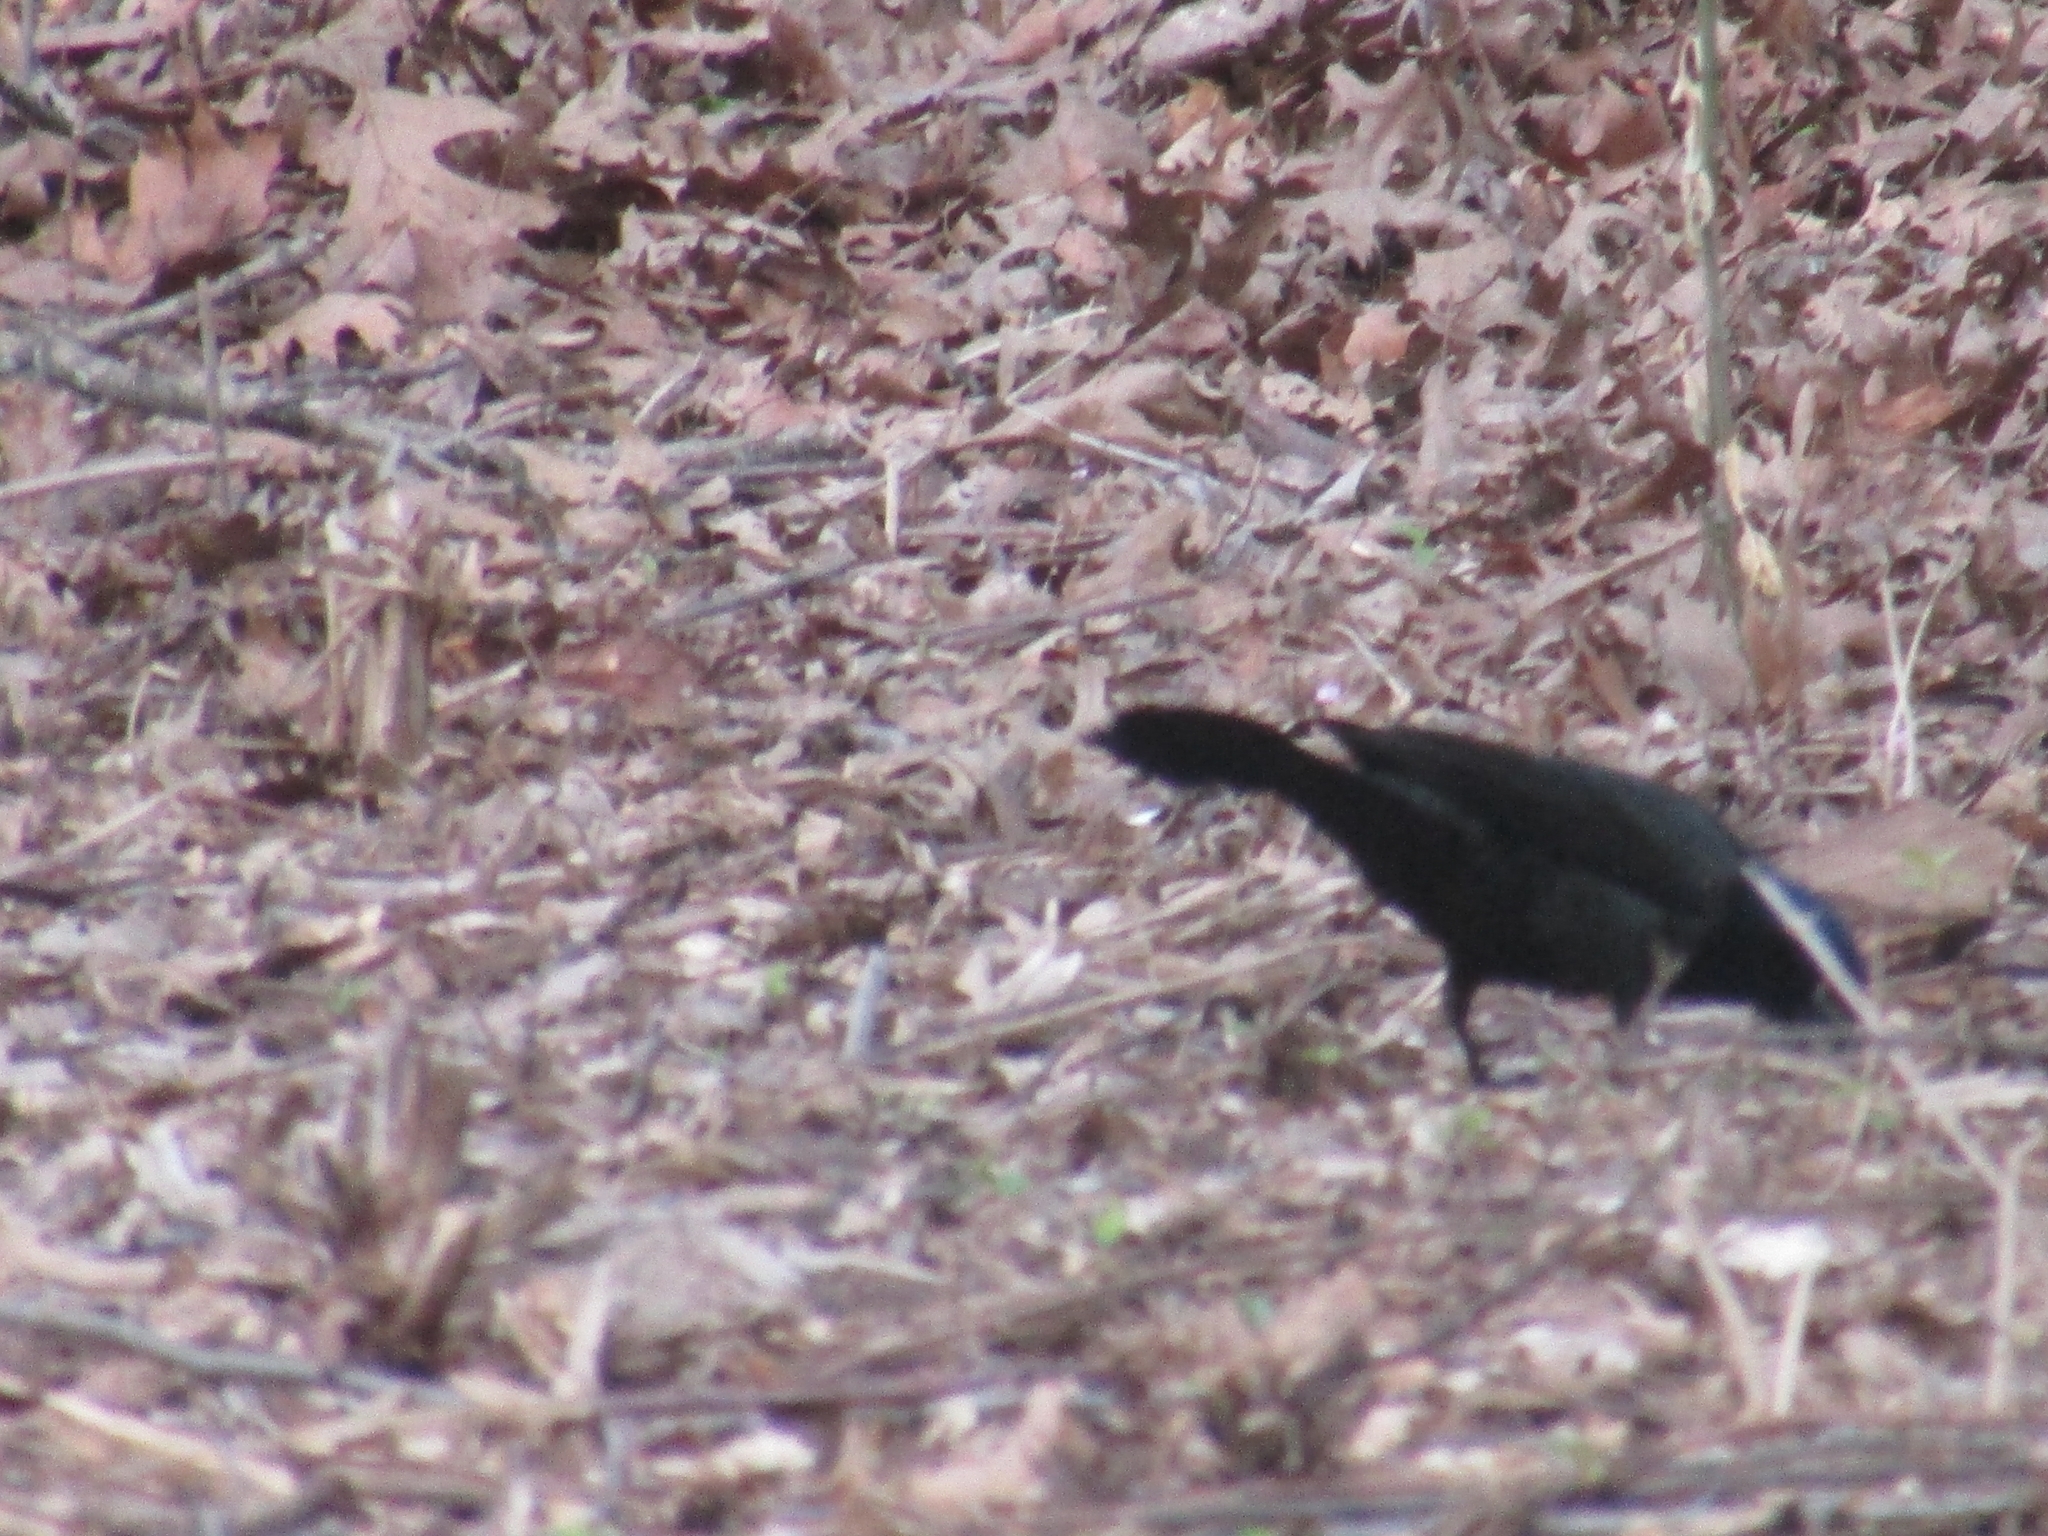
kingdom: Animalia
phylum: Chordata
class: Aves
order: Passeriformes
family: Icteridae
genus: Quiscalus
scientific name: Quiscalus quiscula
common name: Common grackle
